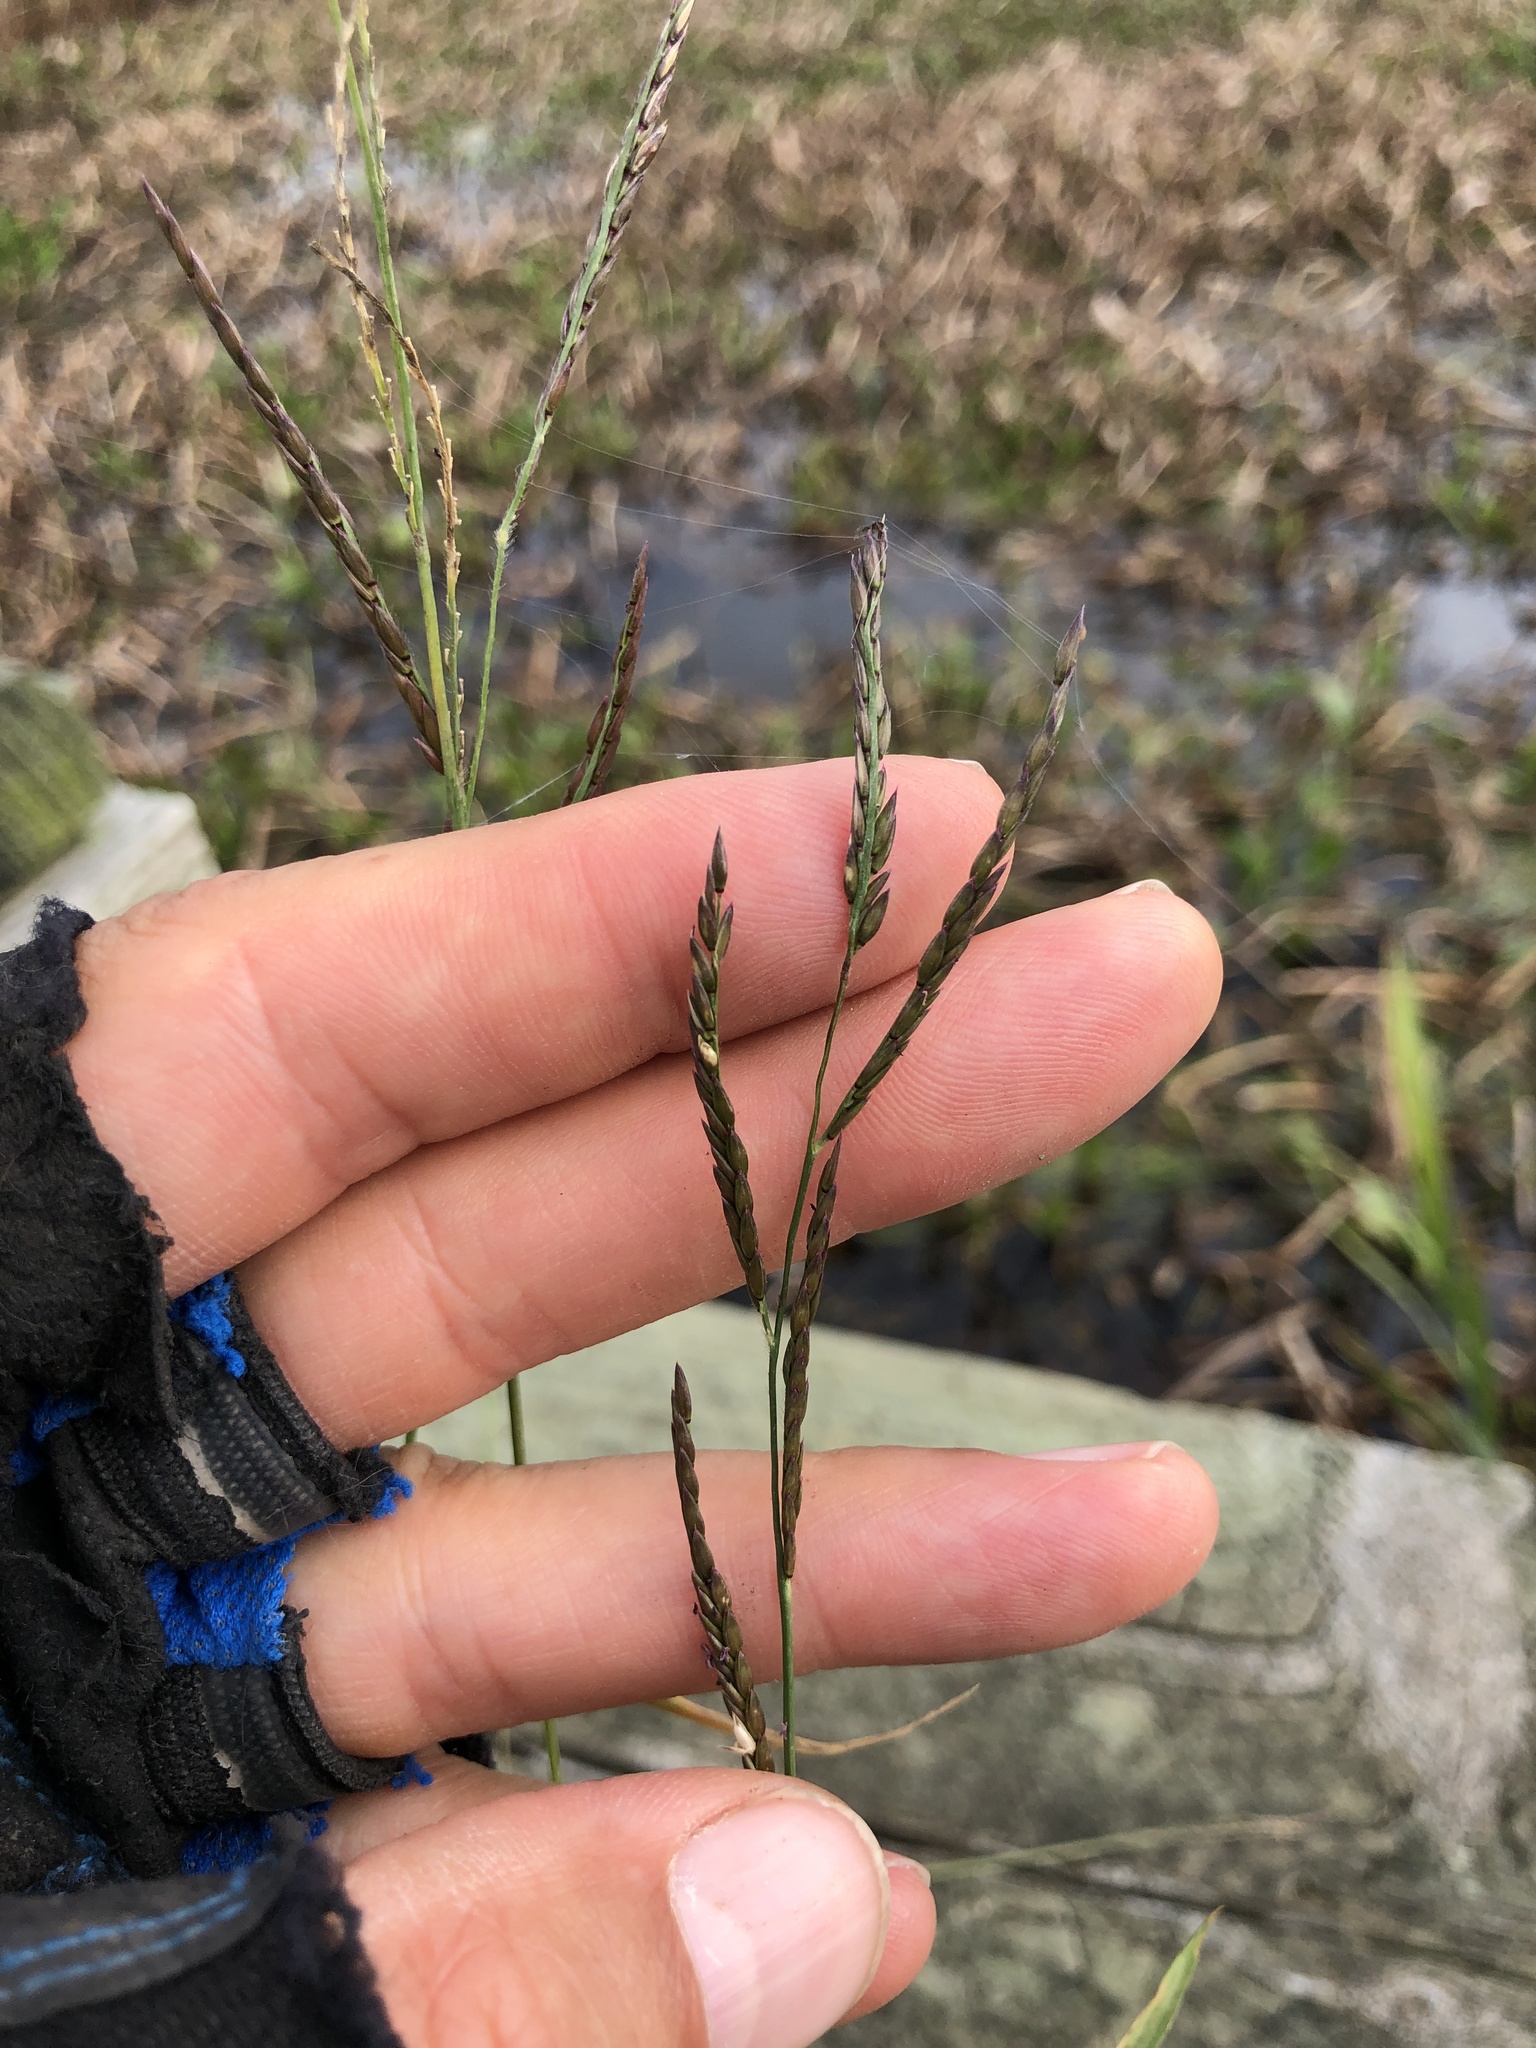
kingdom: Plantae
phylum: Tracheophyta
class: Liliopsida
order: Poales
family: Poaceae
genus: Eriochloa
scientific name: Eriochloa punctata
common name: Louisiana cupgrass
